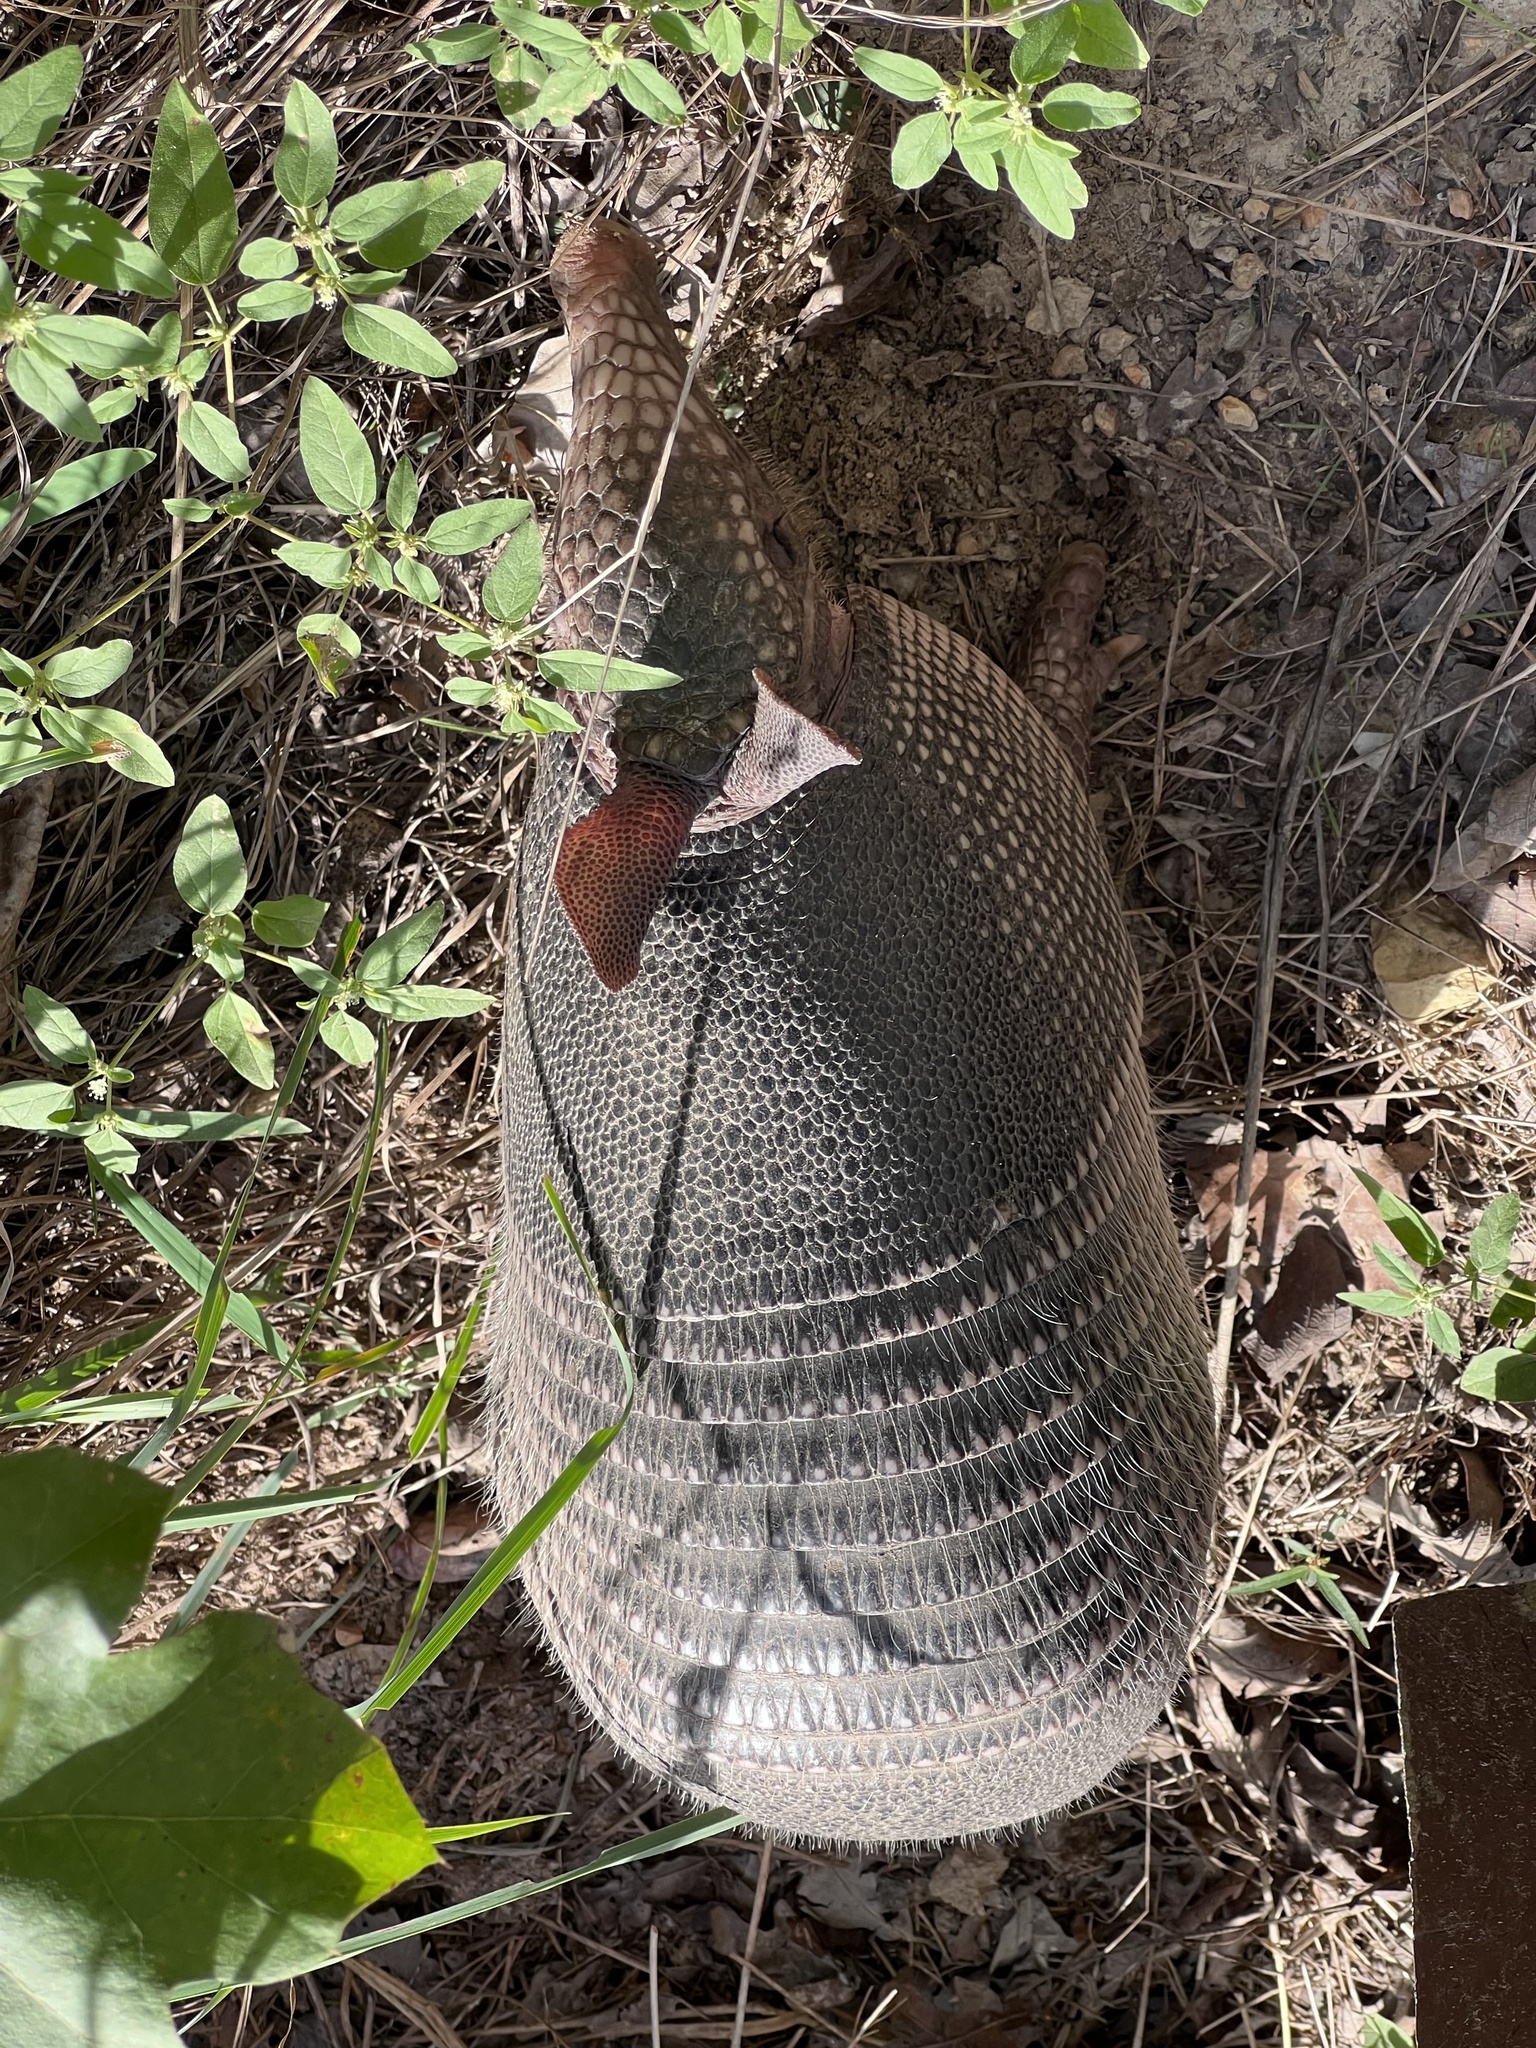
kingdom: Animalia
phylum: Chordata
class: Mammalia
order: Cingulata
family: Dasypodidae
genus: Dasypus
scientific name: Dasypus novemcinctus
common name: Nine-banded armadillo
